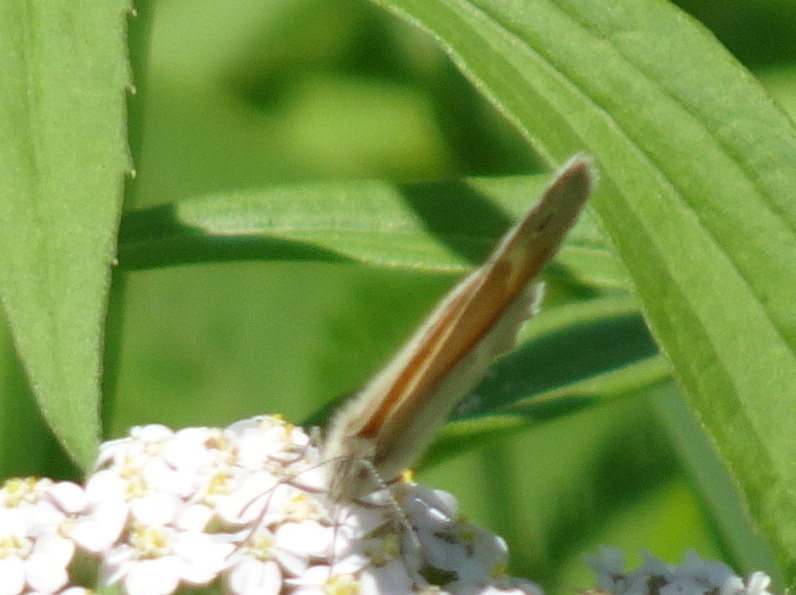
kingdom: Animalia
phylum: Arthropoda
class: Insecta
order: Lepidoptera
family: Nymphalidae
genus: Coenonympha
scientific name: Coenonympha california
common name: Common ringlet
